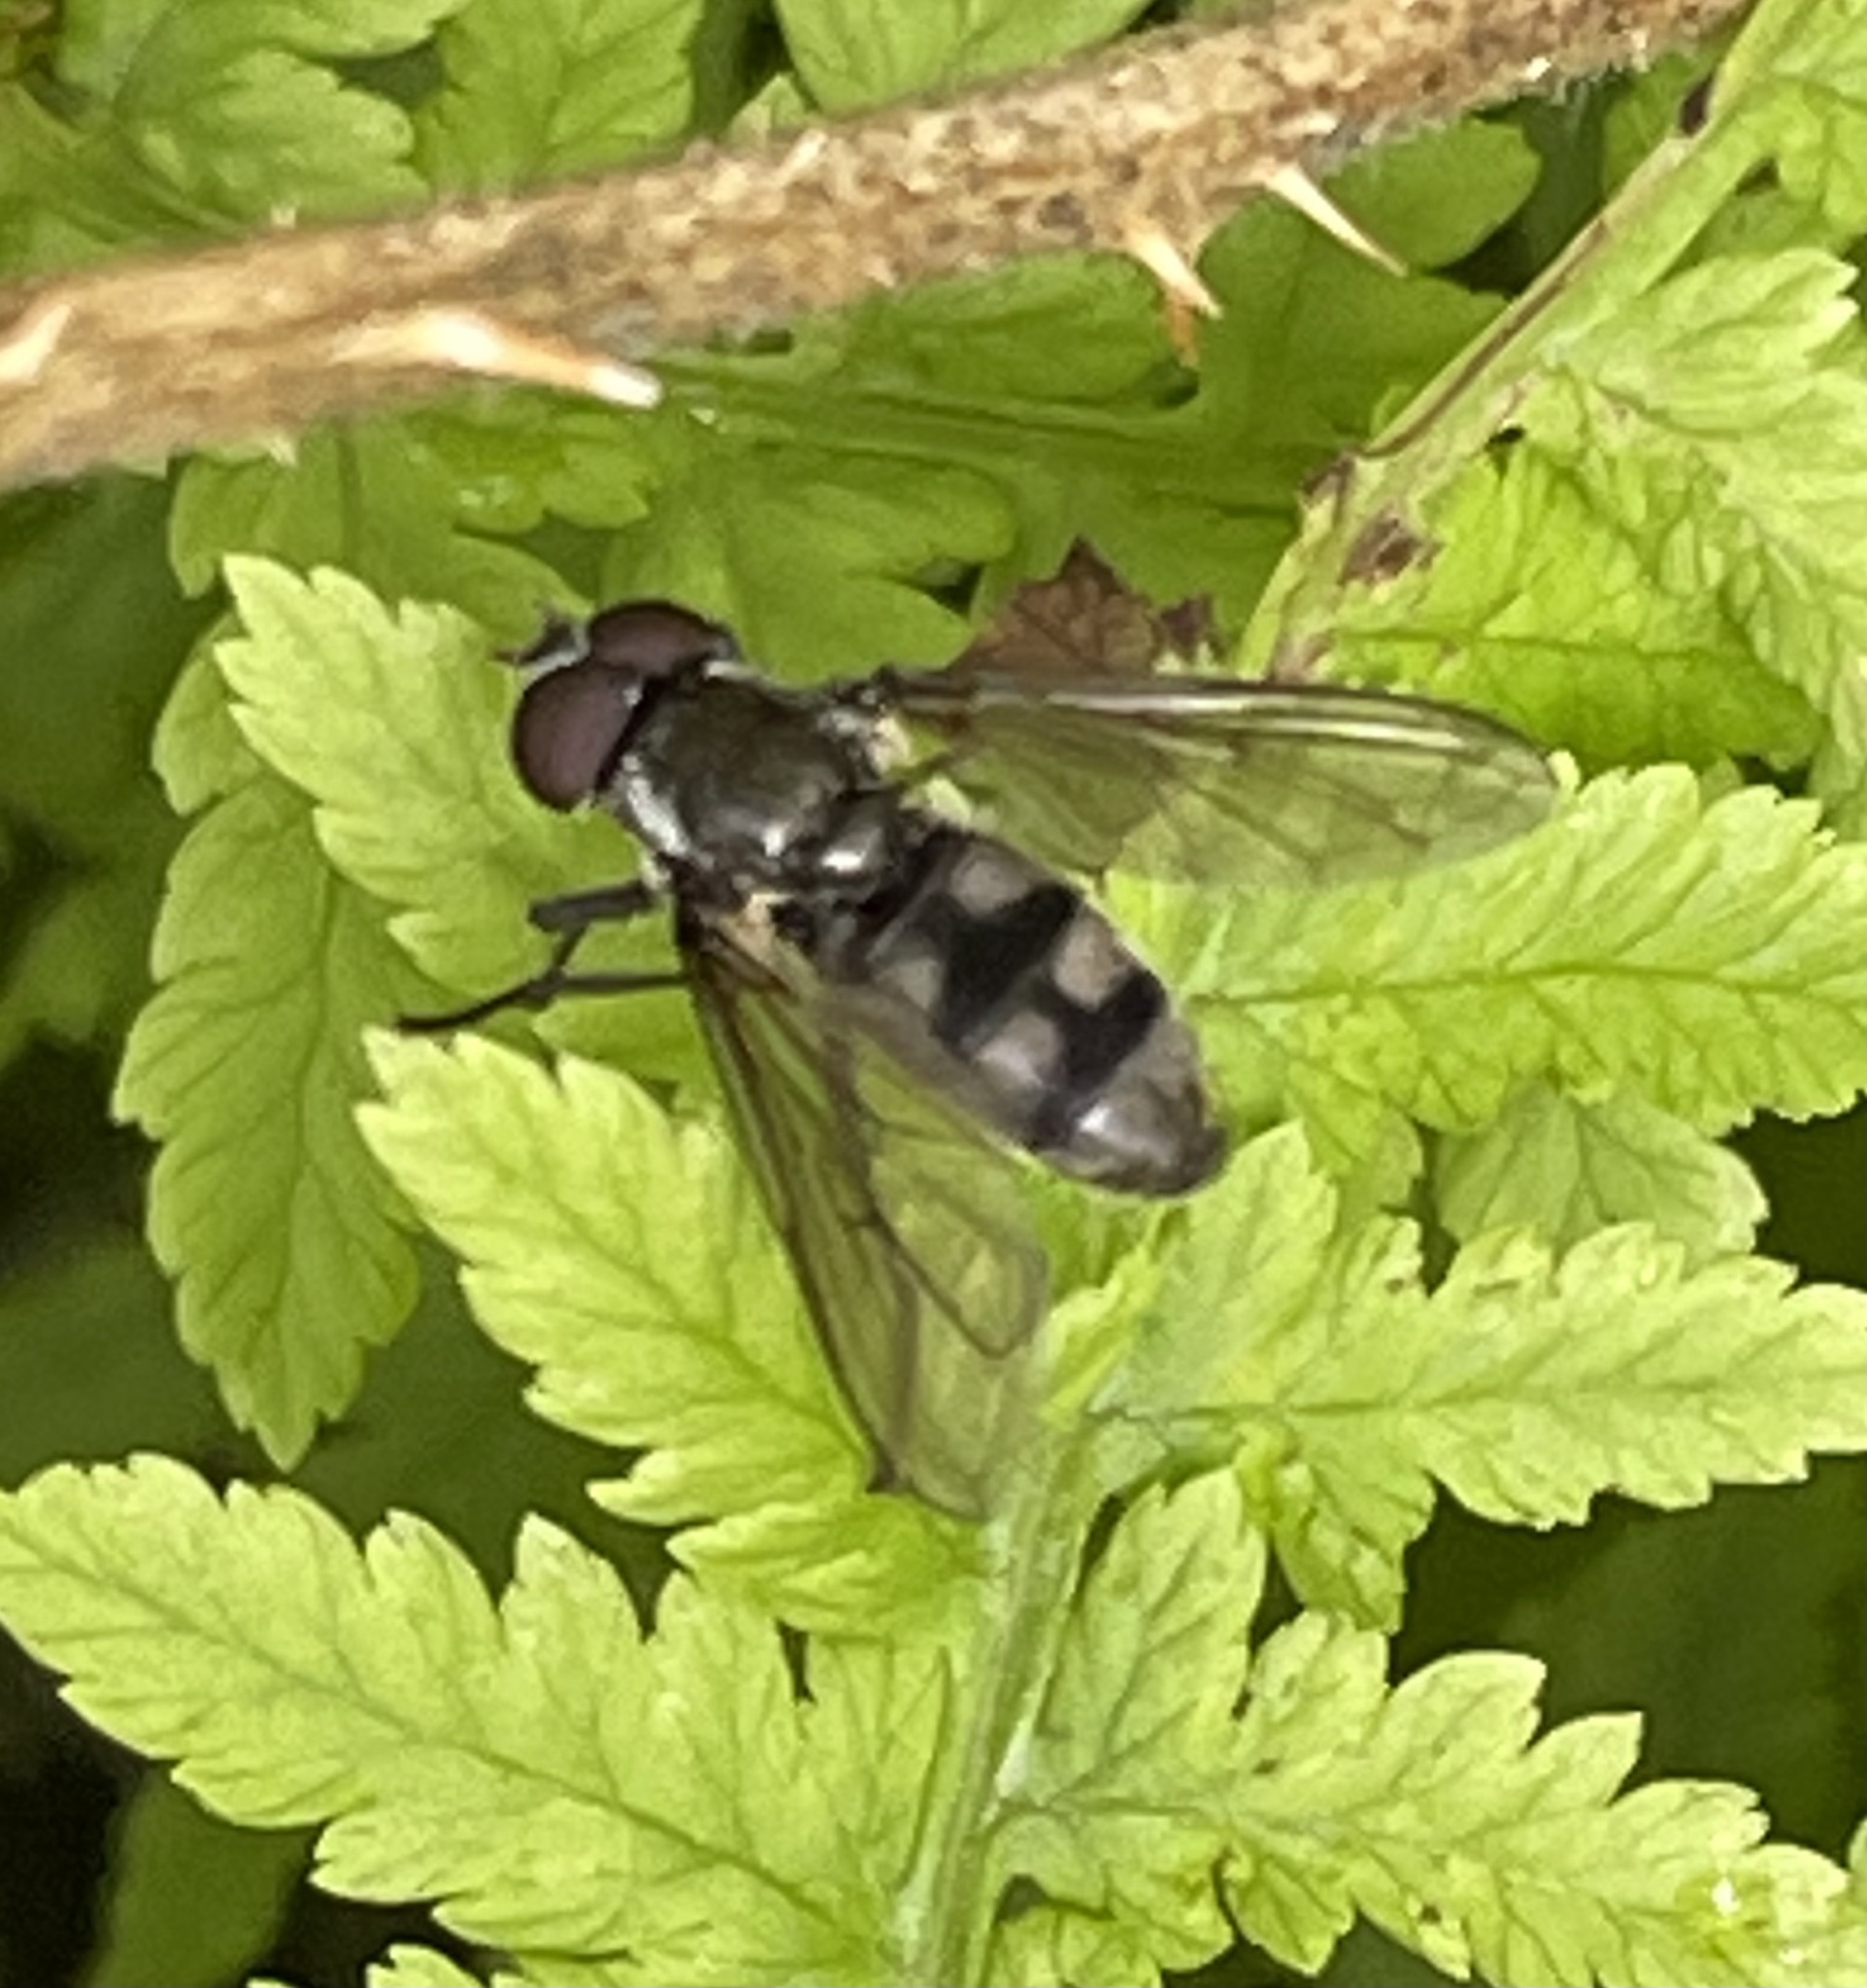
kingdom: Animalia
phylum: Arthropoda
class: Insecta
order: Diptera
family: Syrphidae
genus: Portevinia
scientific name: Portevinia maculata
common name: Ramson's hoverfly
